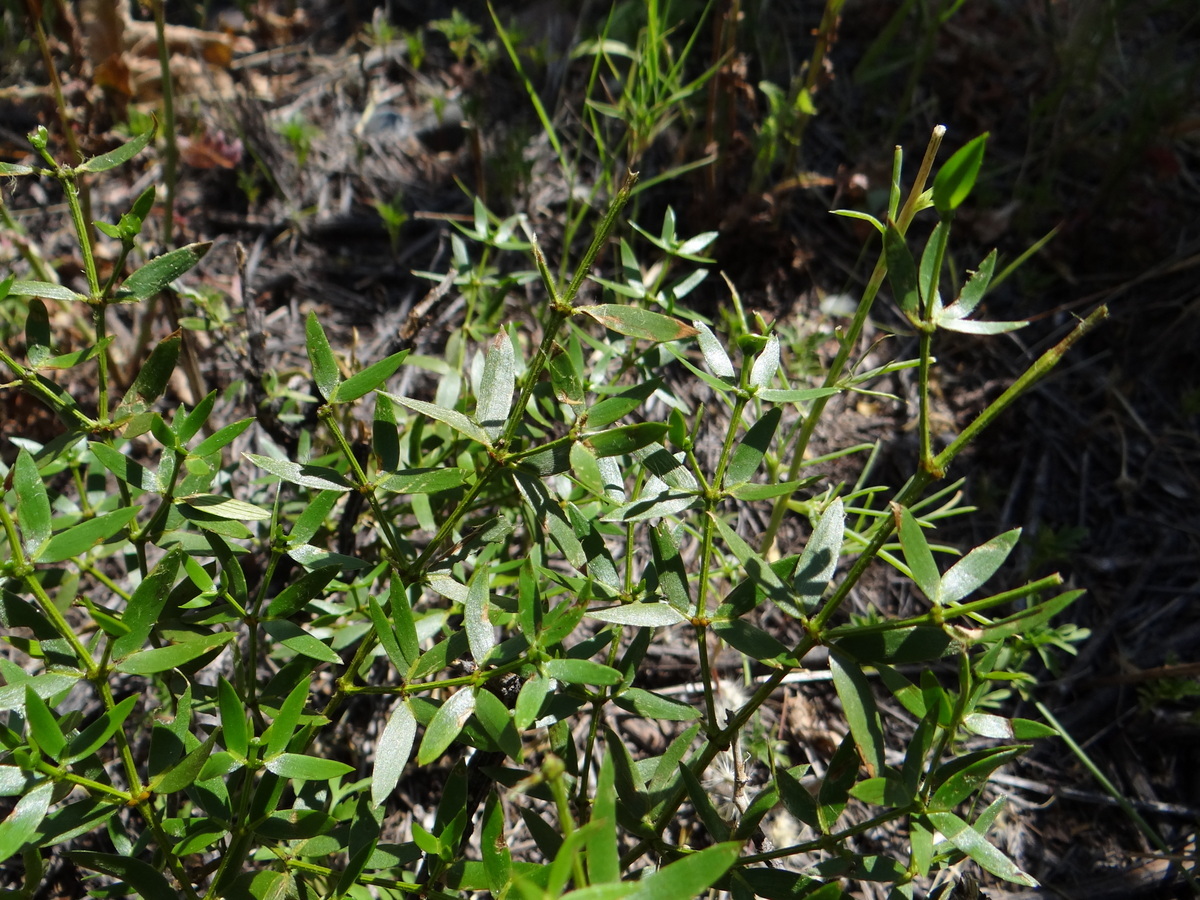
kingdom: Plantae
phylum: Tracheophyta
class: Magnoliopsida
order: Zygophyllales
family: Zygophyllaceae
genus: Larrea
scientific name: Larrea divaricata
